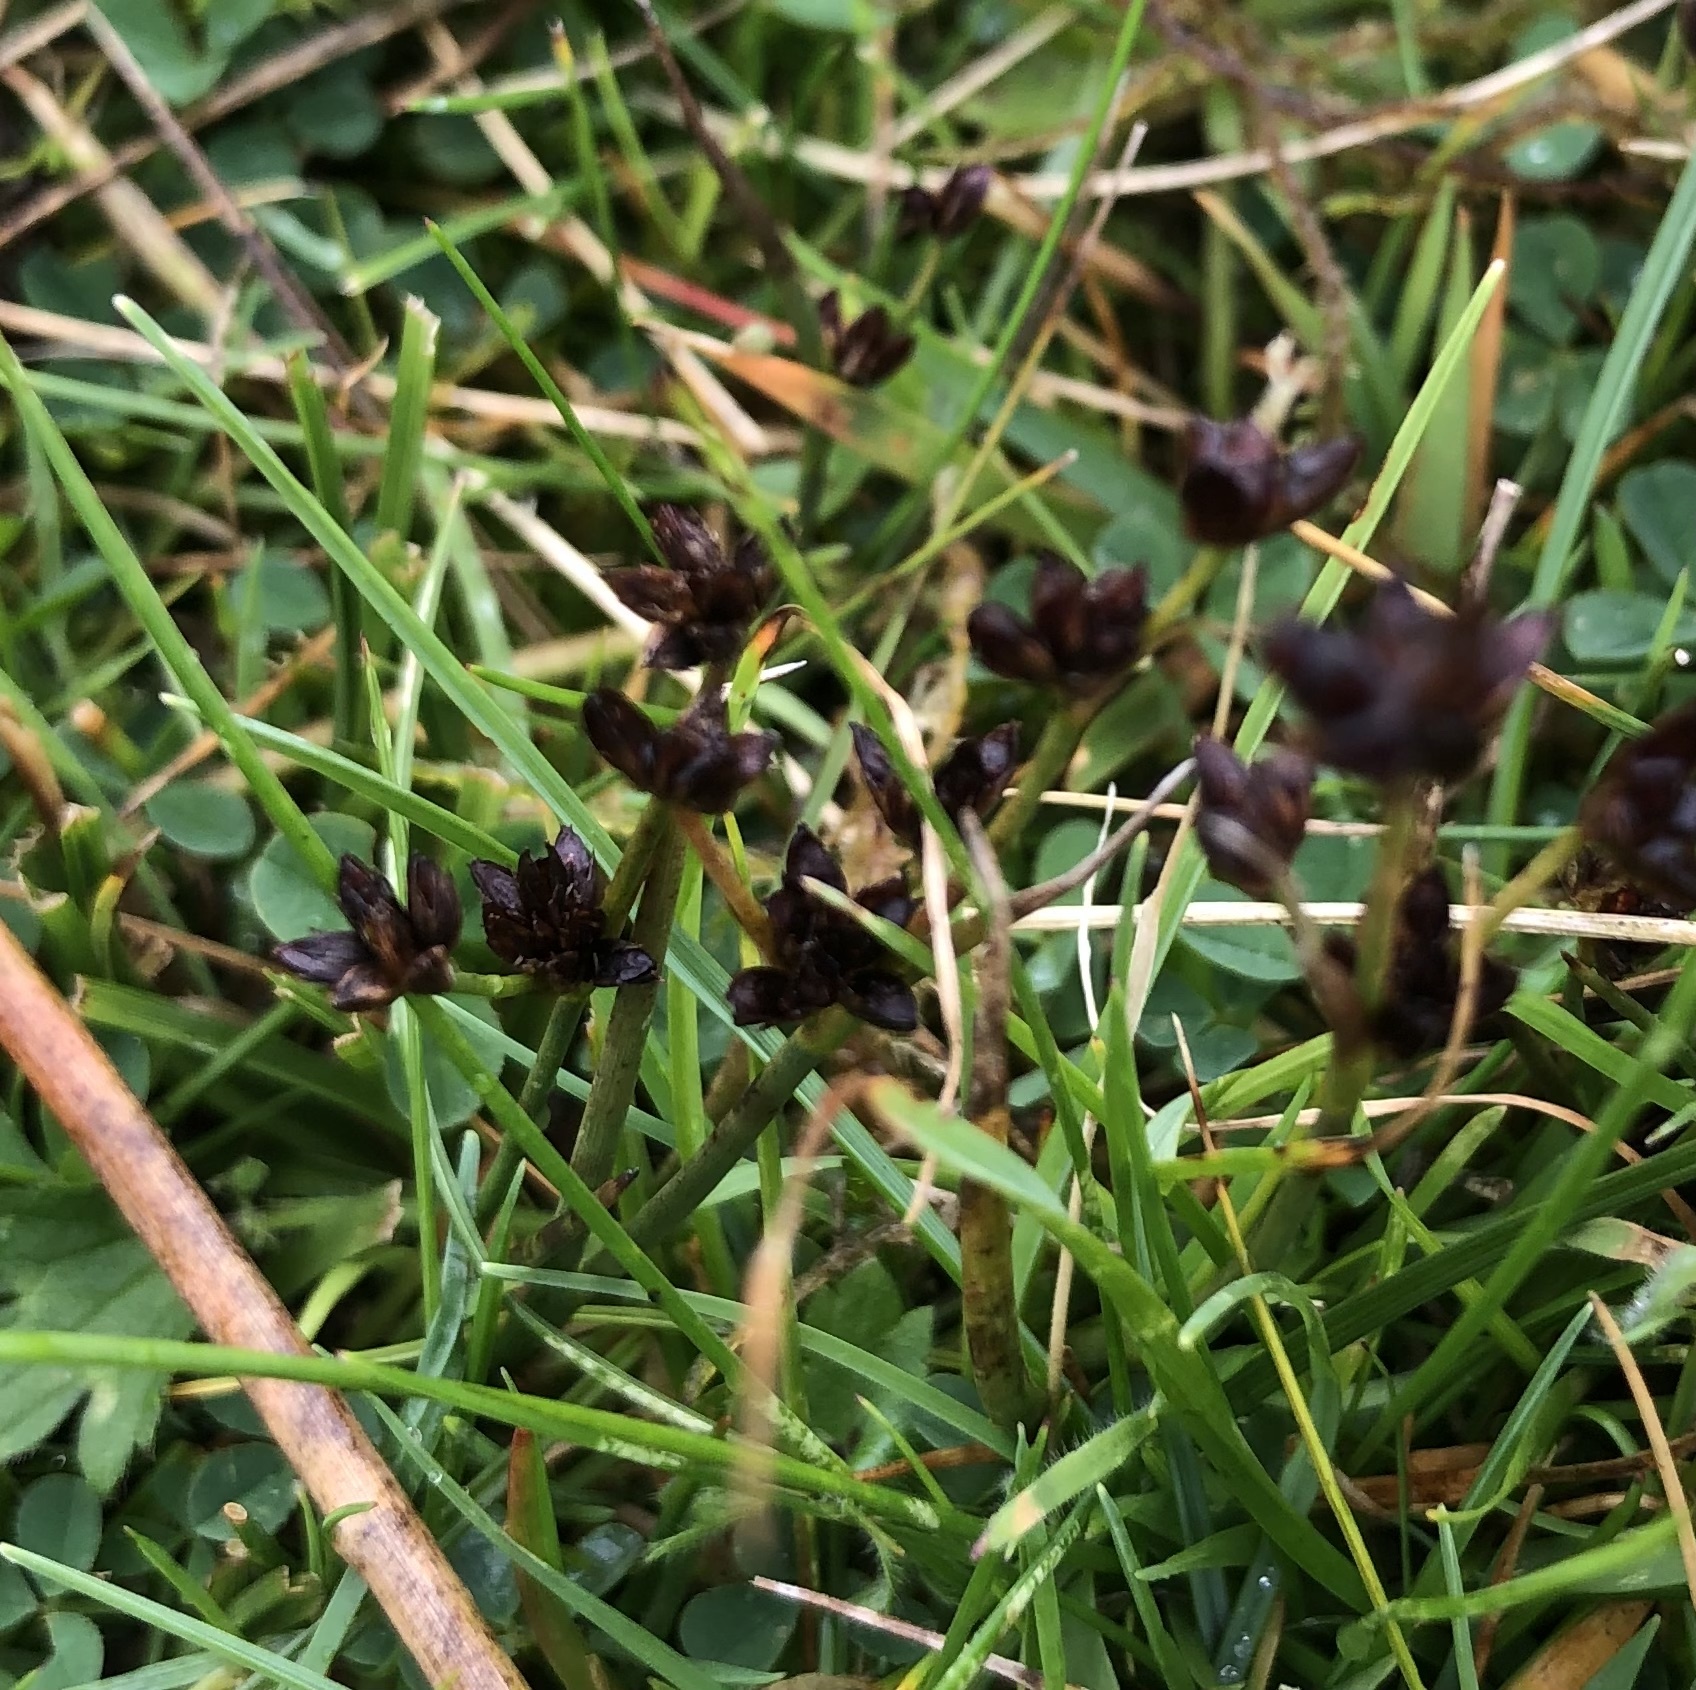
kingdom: Plantae
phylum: Tracheophyta
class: Liliopsida
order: Poales
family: Juncaceae
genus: Juncus
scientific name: Juncus articulatus
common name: Jointed rush
